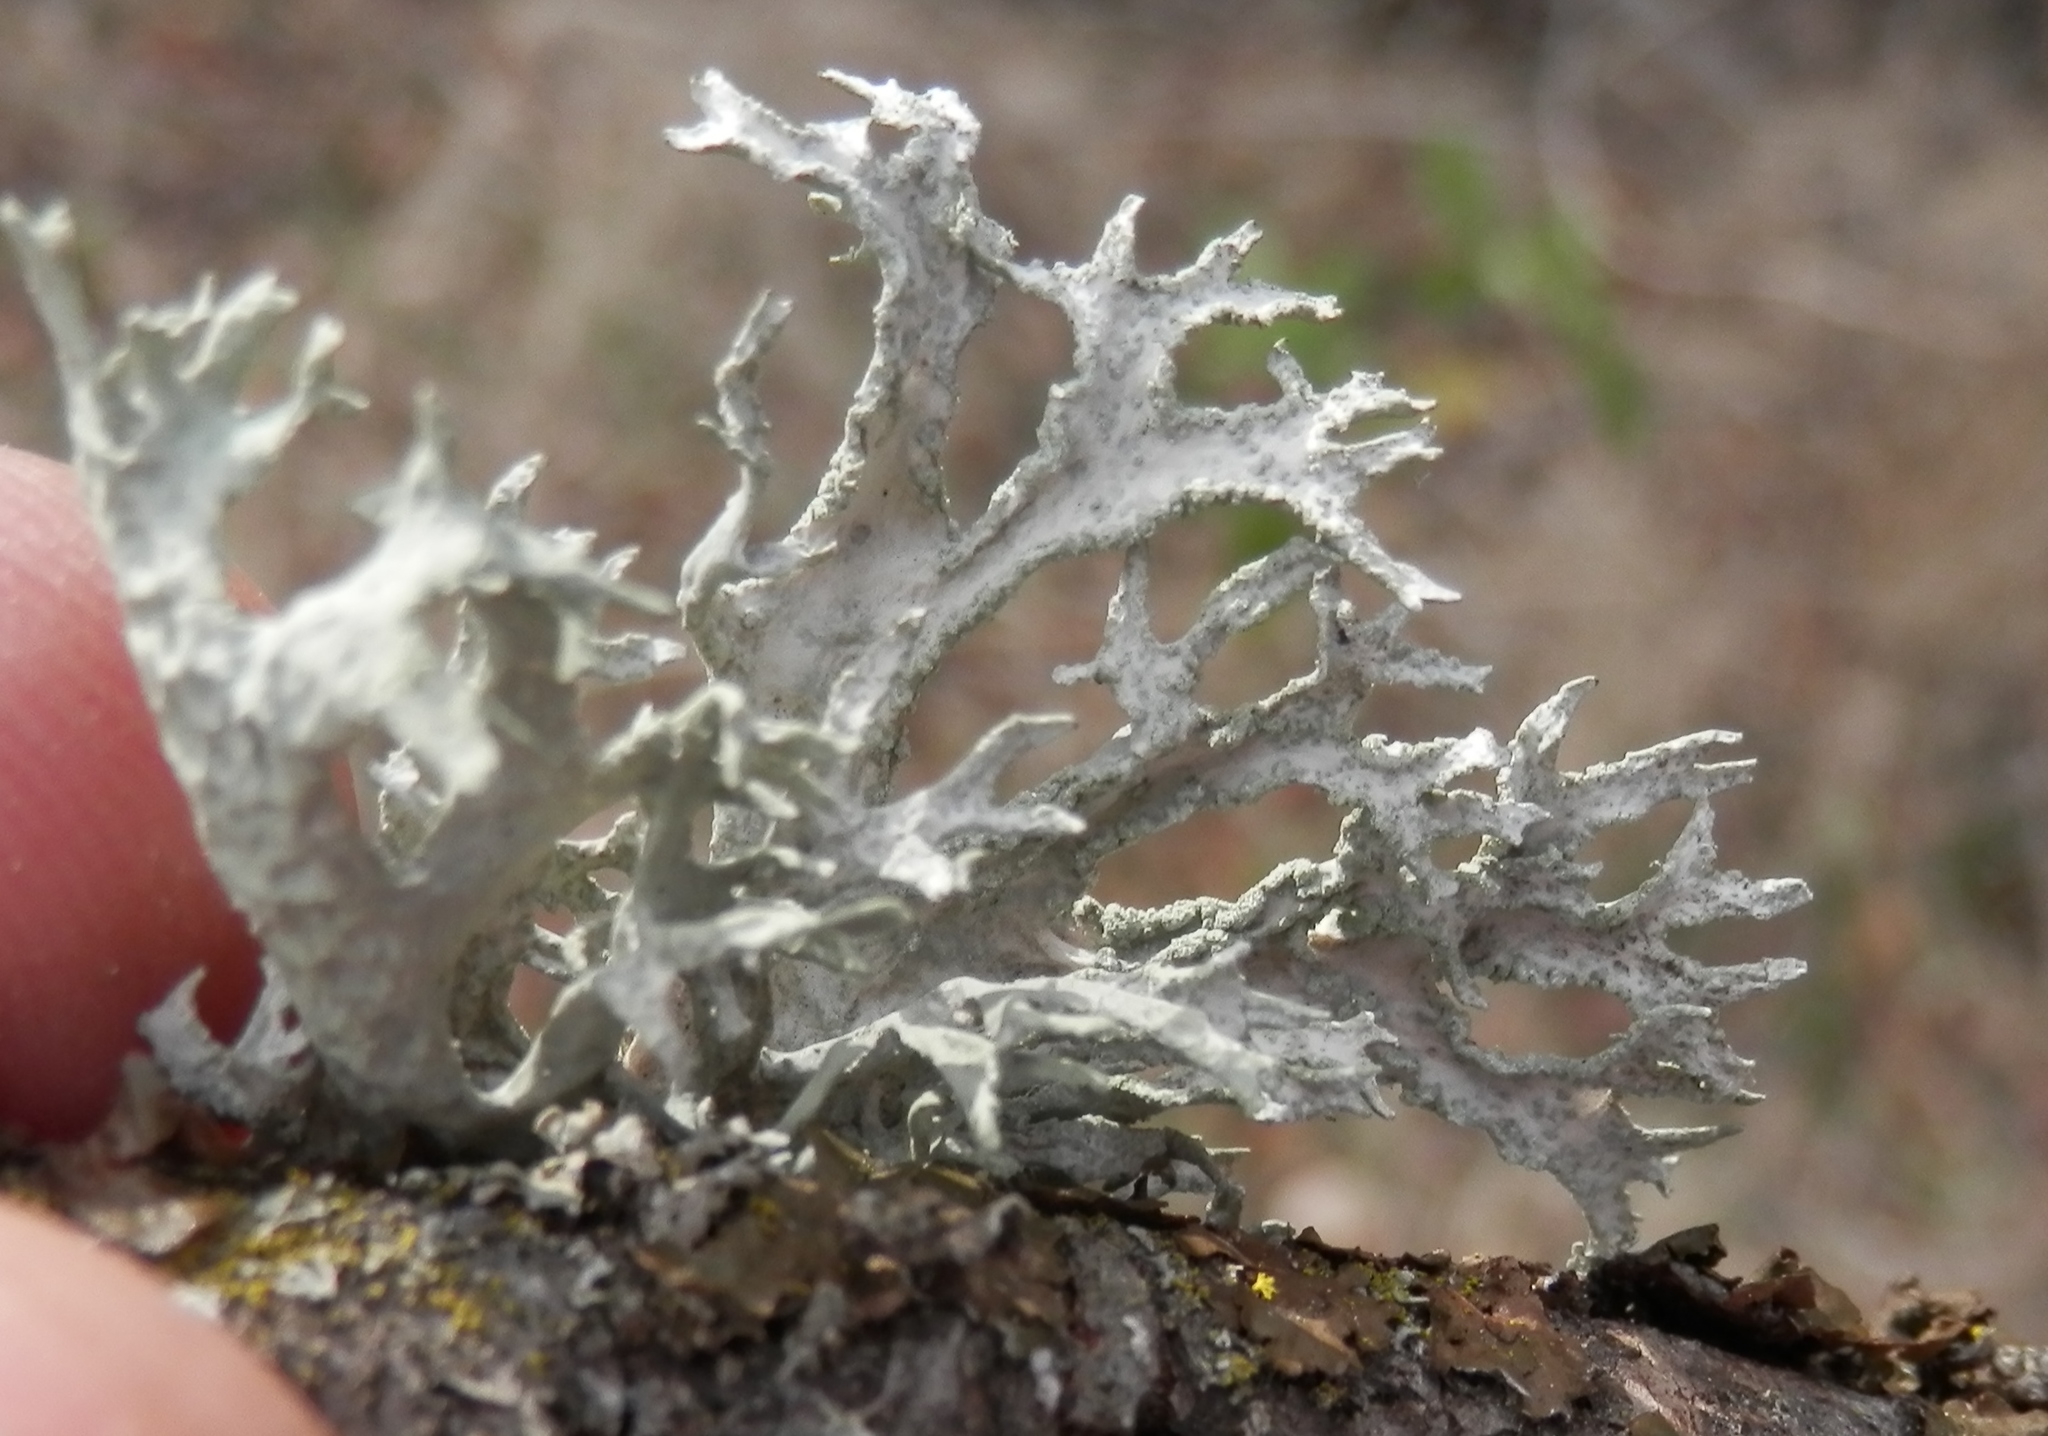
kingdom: Fungi
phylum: Ascomycota
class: Lecanoromycetes
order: Lecanorales
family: Parmeliaceae
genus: Evernia
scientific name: Evernia prunastri
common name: Oak moss
